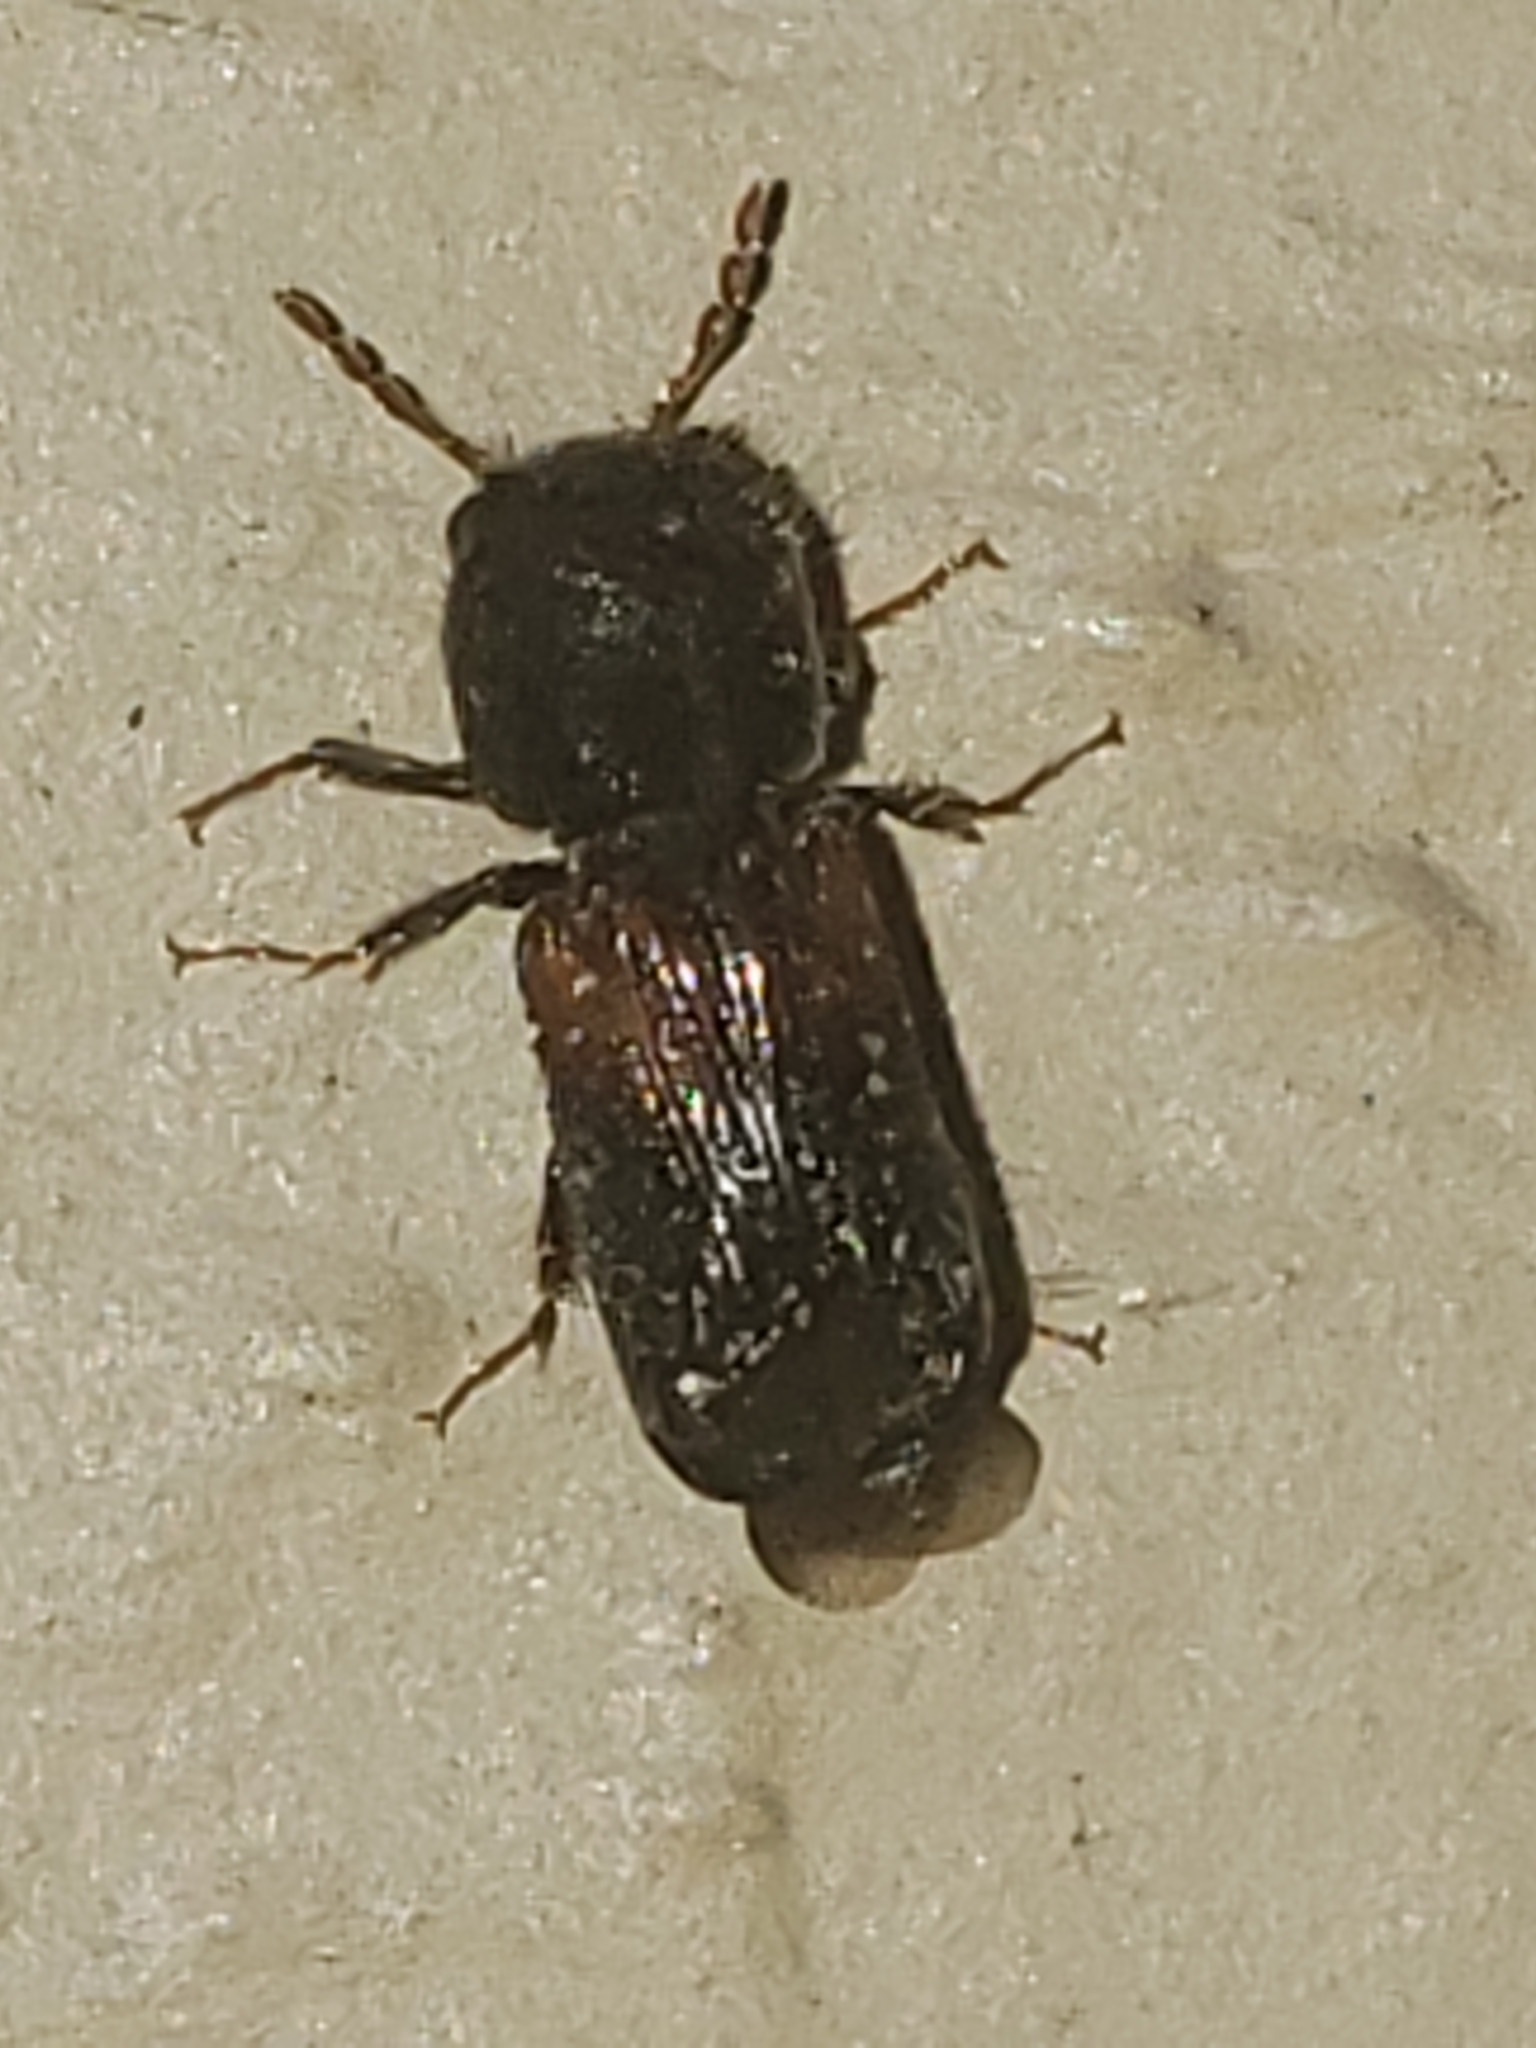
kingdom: Animalia
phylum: Arthropoda
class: Insecta
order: Coleoptera
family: Bostrichidae
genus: Xylobiops
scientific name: Xylobiops basilaris
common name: Red-shouldered bostrichid
